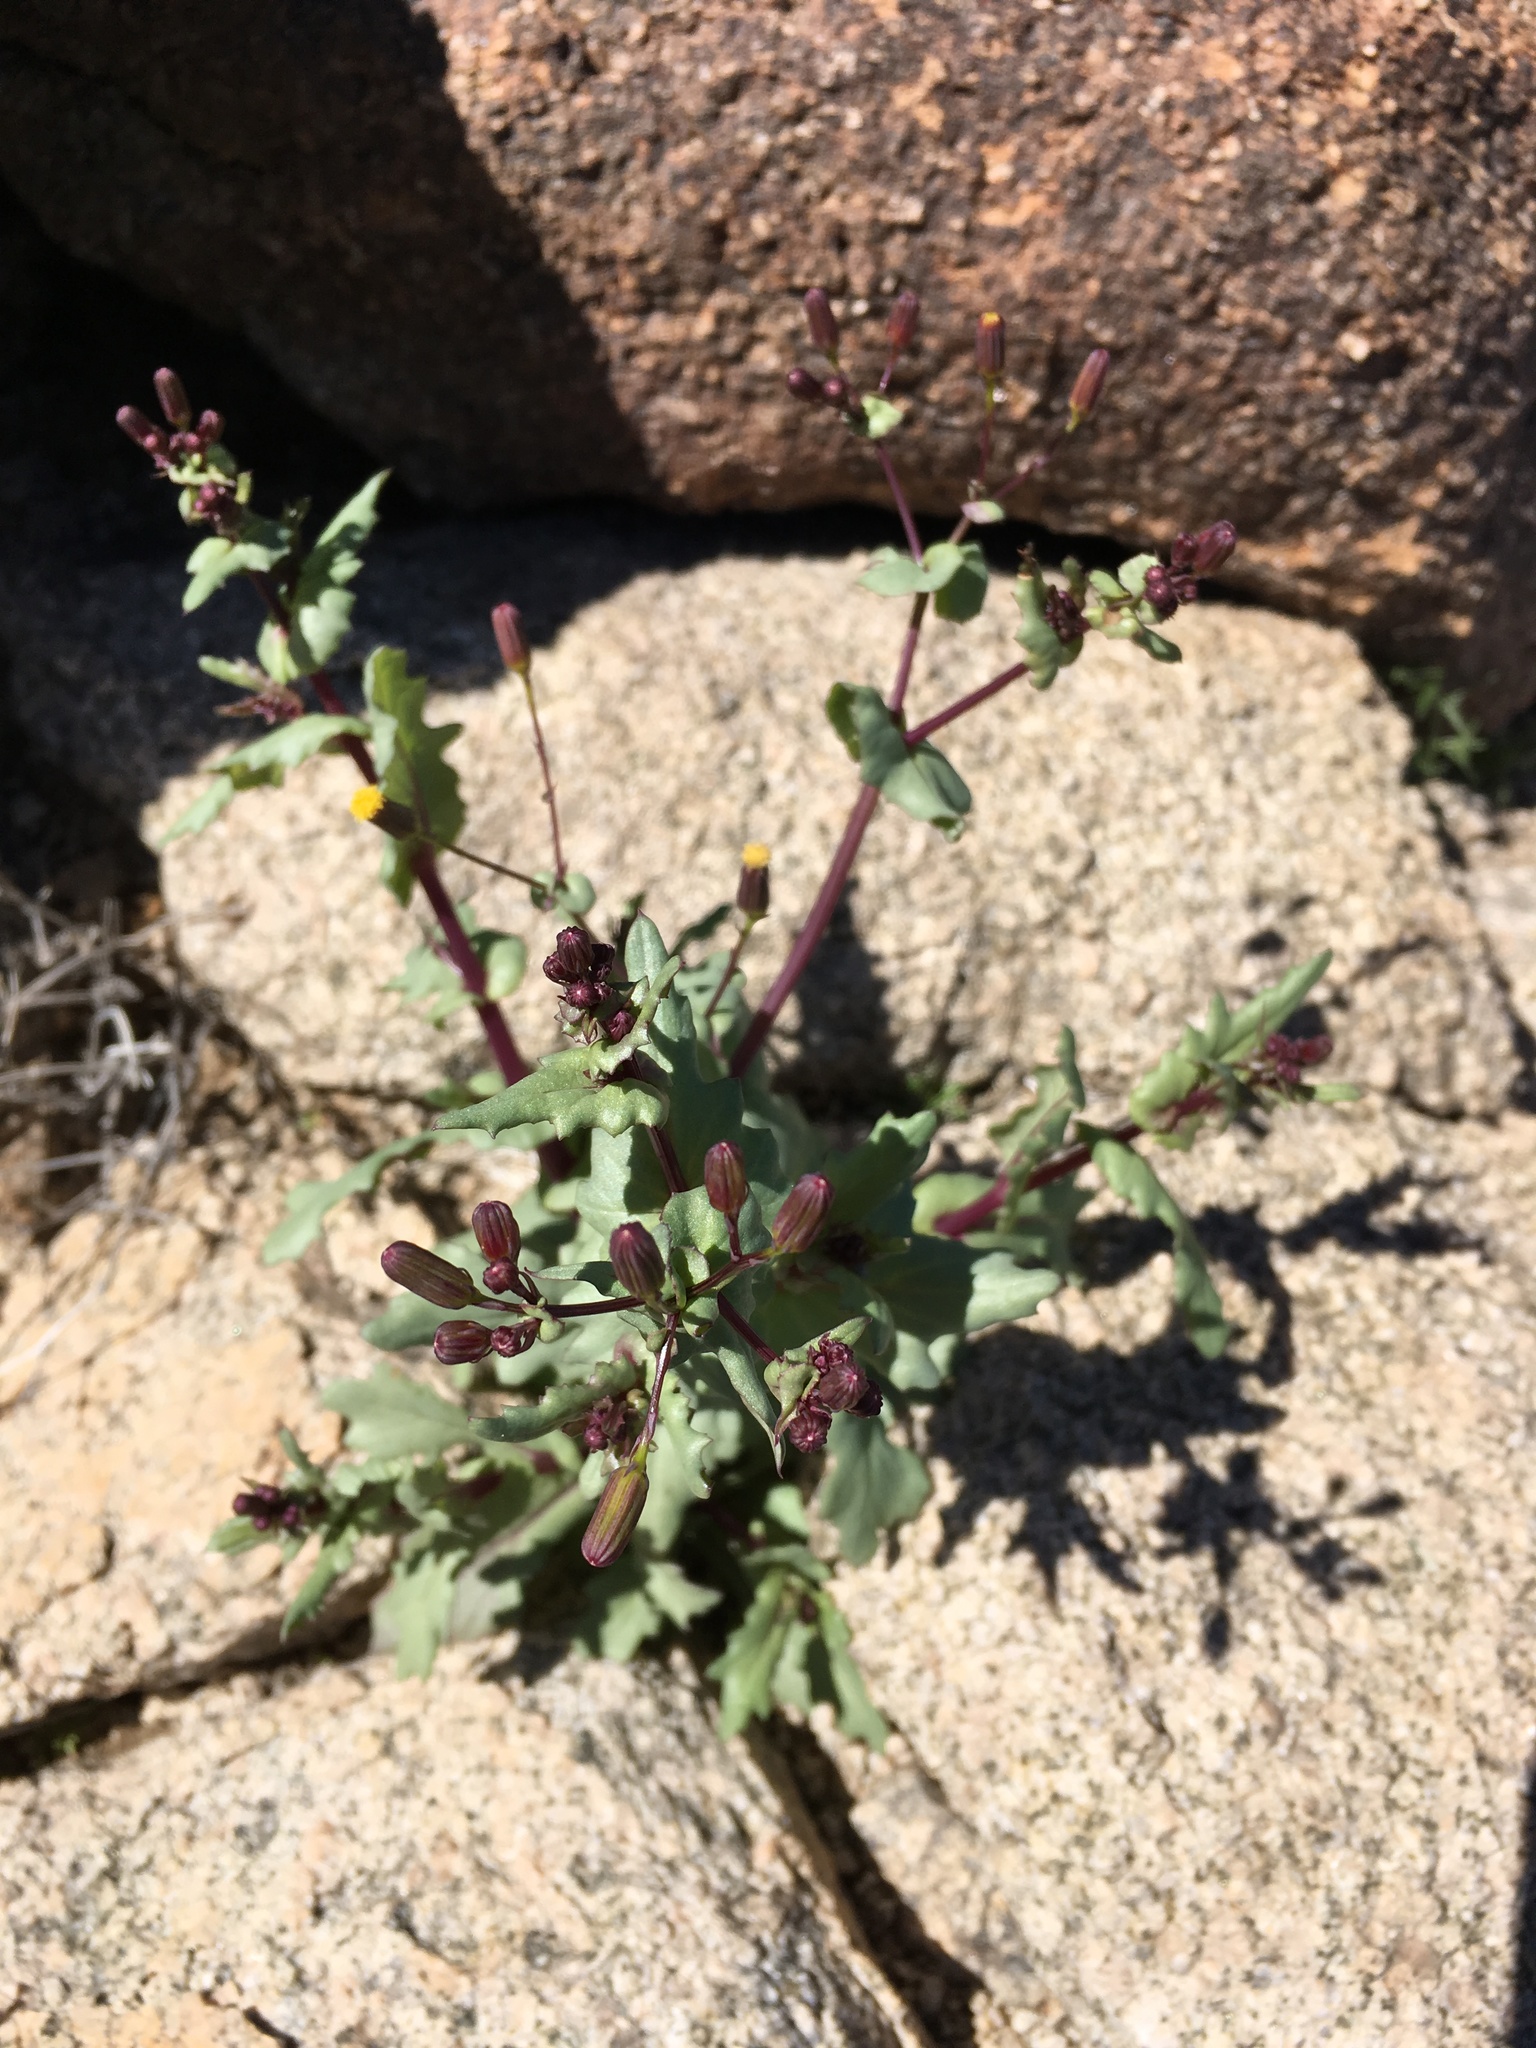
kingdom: Plantae
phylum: Tracheophyta
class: Magnoliopsida
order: Asterales
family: Asteraceae
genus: Senecio
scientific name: Senecio mohavensis
